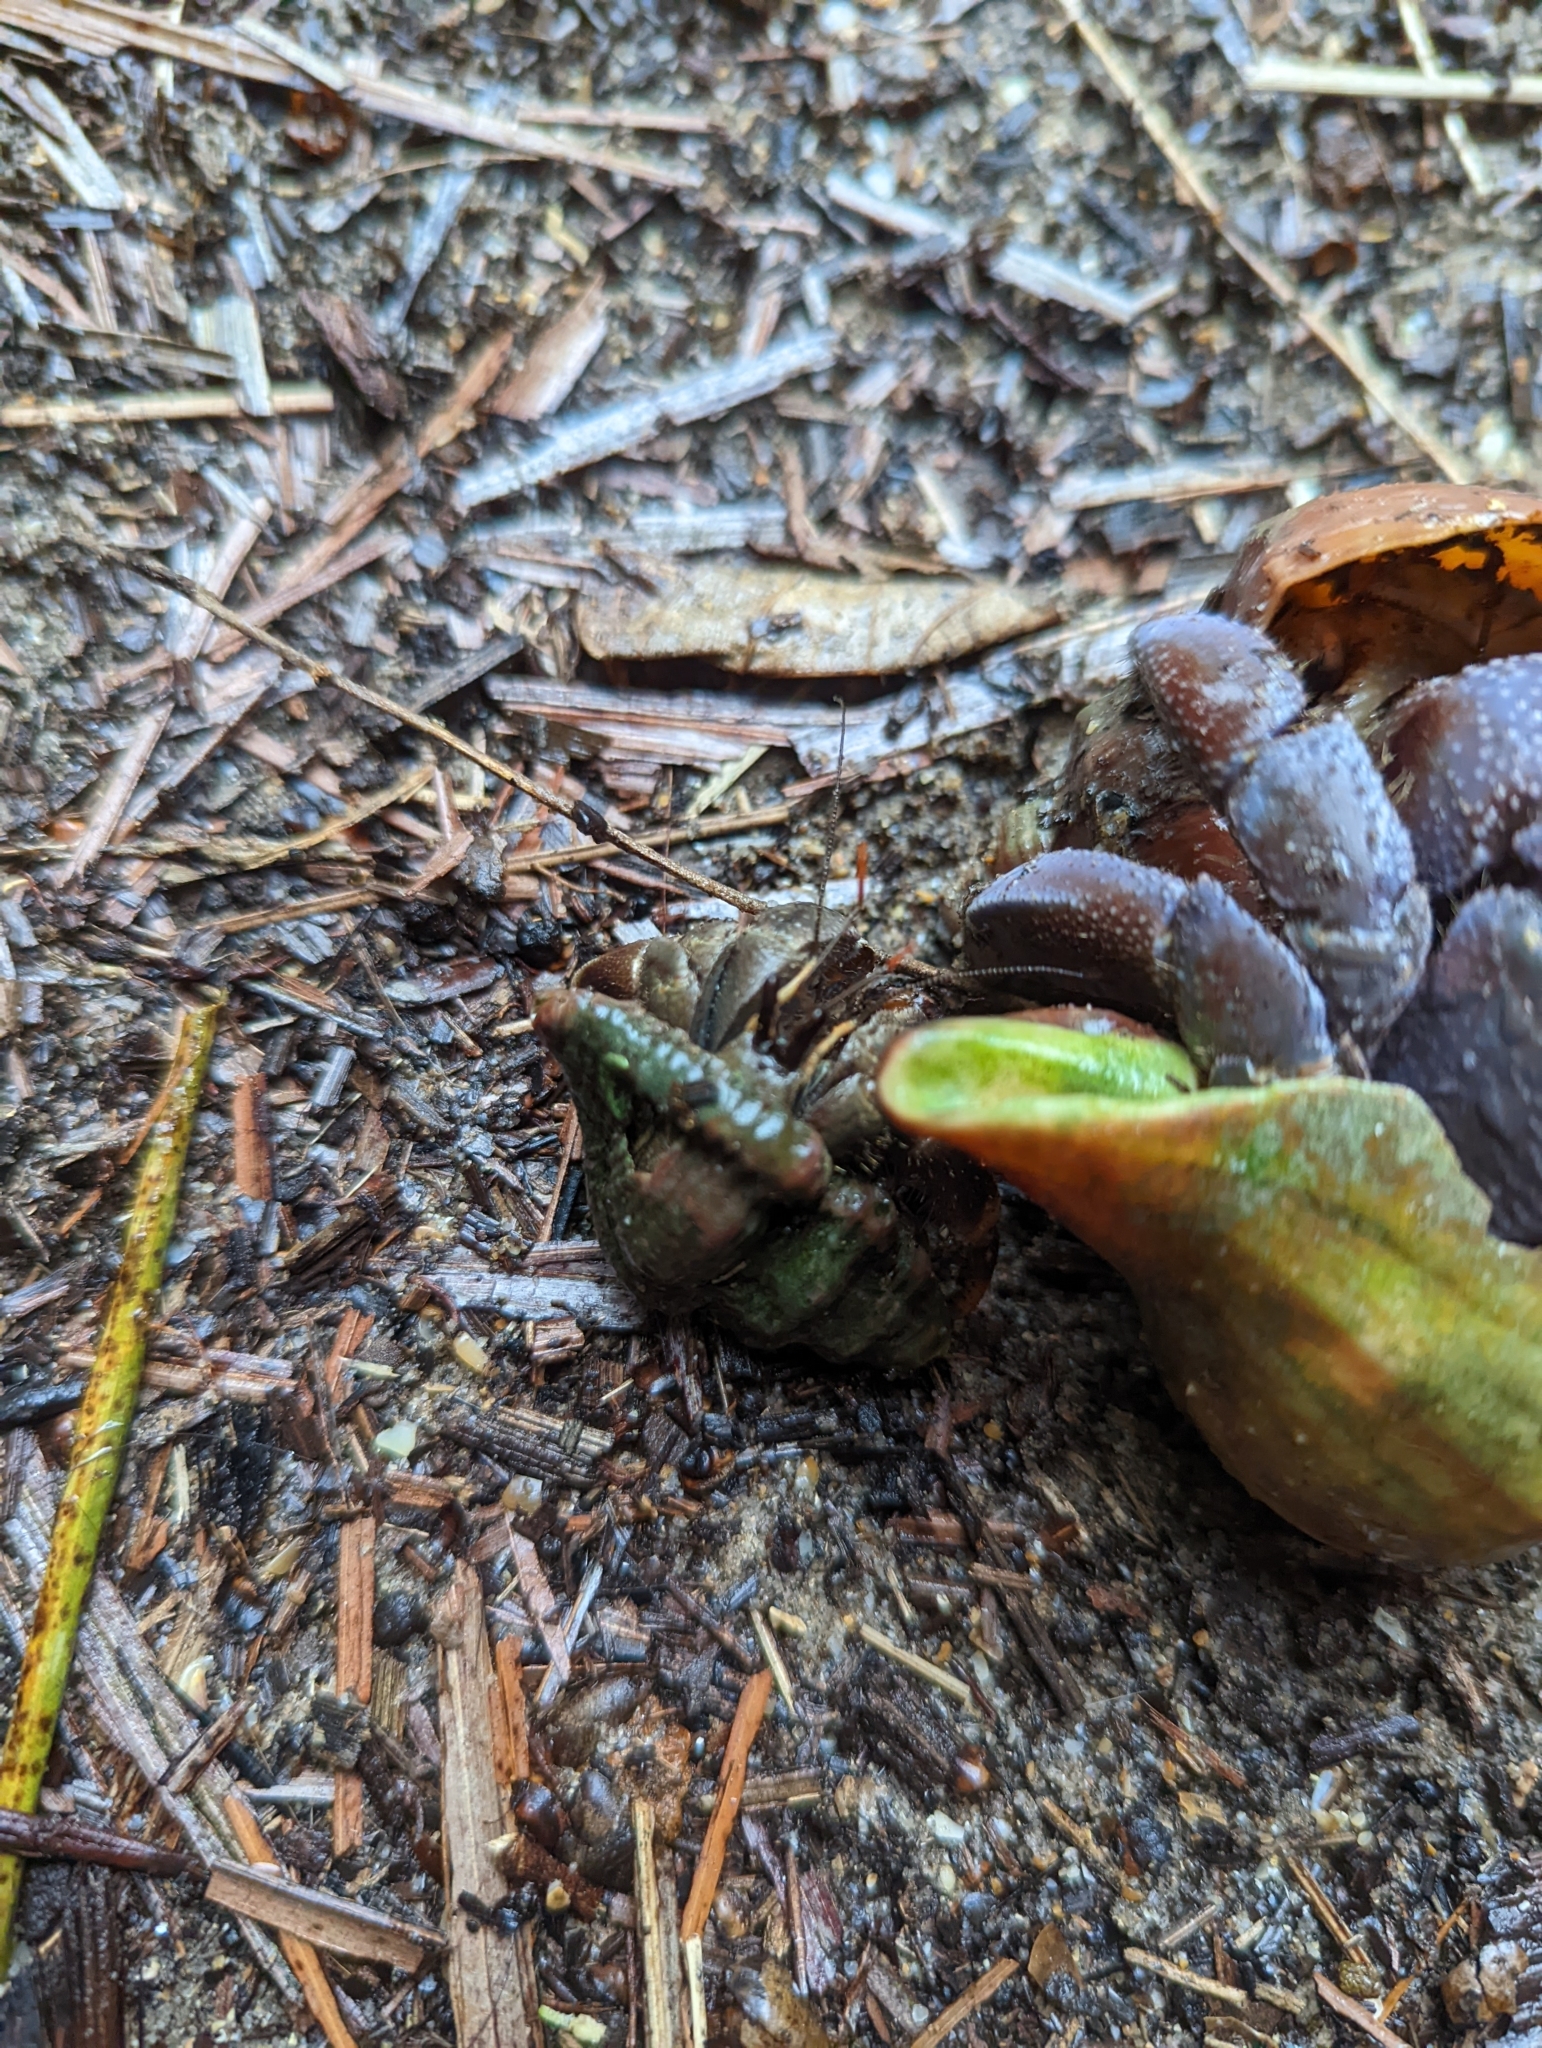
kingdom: Animalia
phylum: Arthropoda
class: Malacostraca
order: Decapoda
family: Coenobitidae
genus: Coenobita
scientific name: Coenobita violascens
